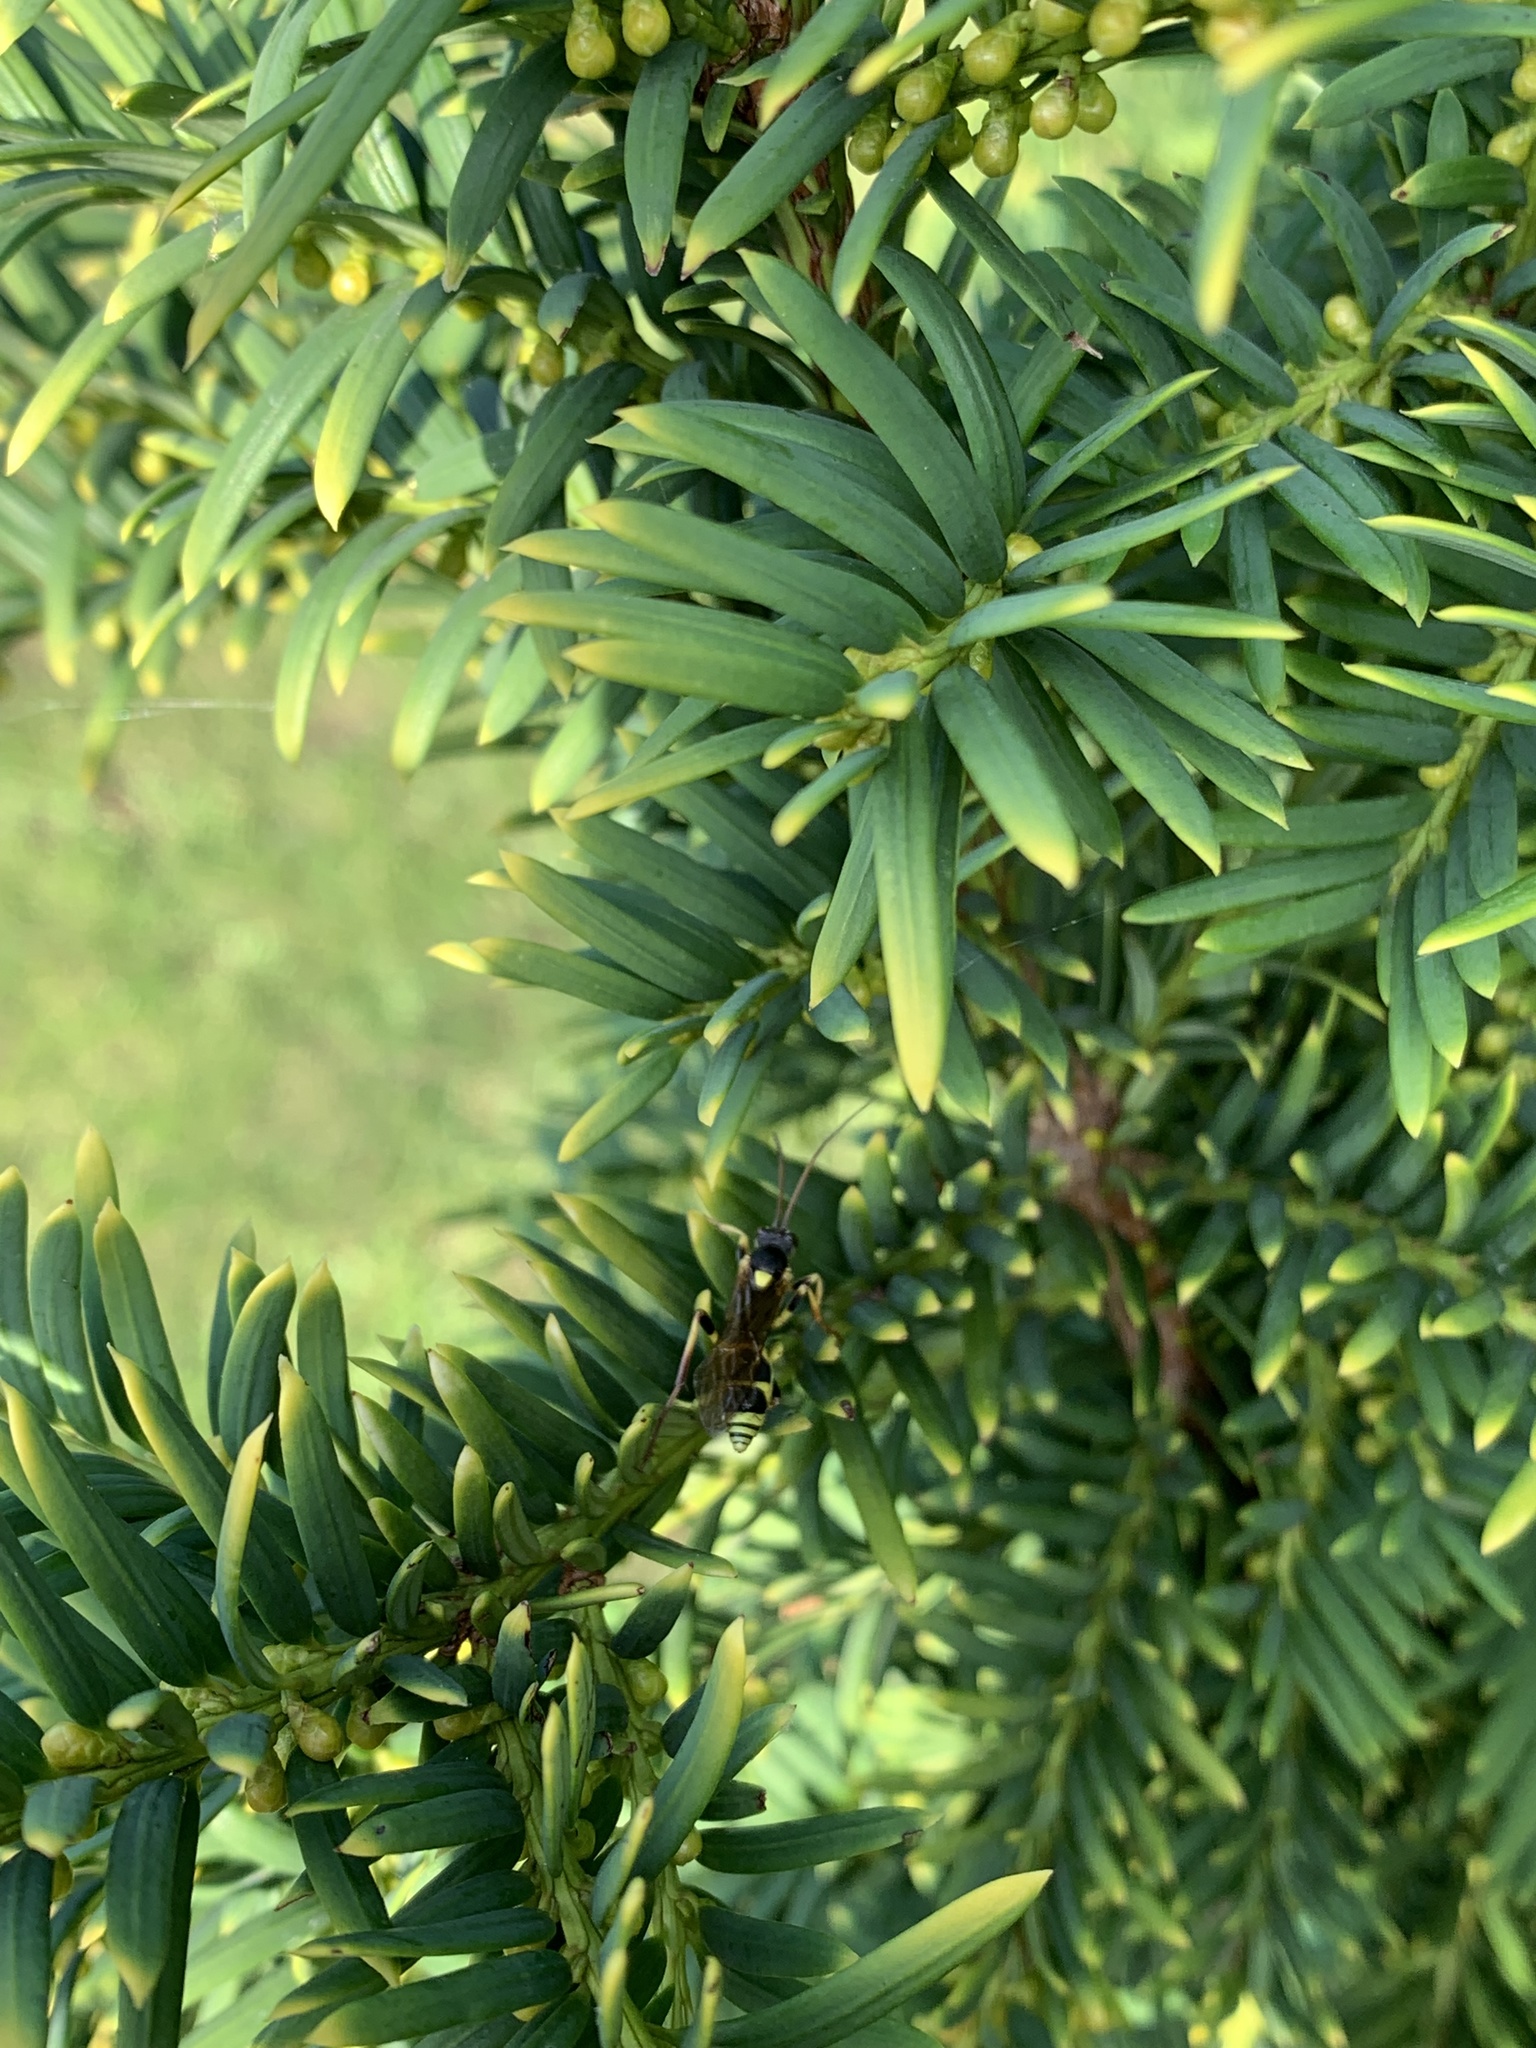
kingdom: Animalia
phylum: Arthropoda
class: Insecta
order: Hymenoptera
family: Ichneumonidae
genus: Amblyteles
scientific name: Amblyteles armatorius
